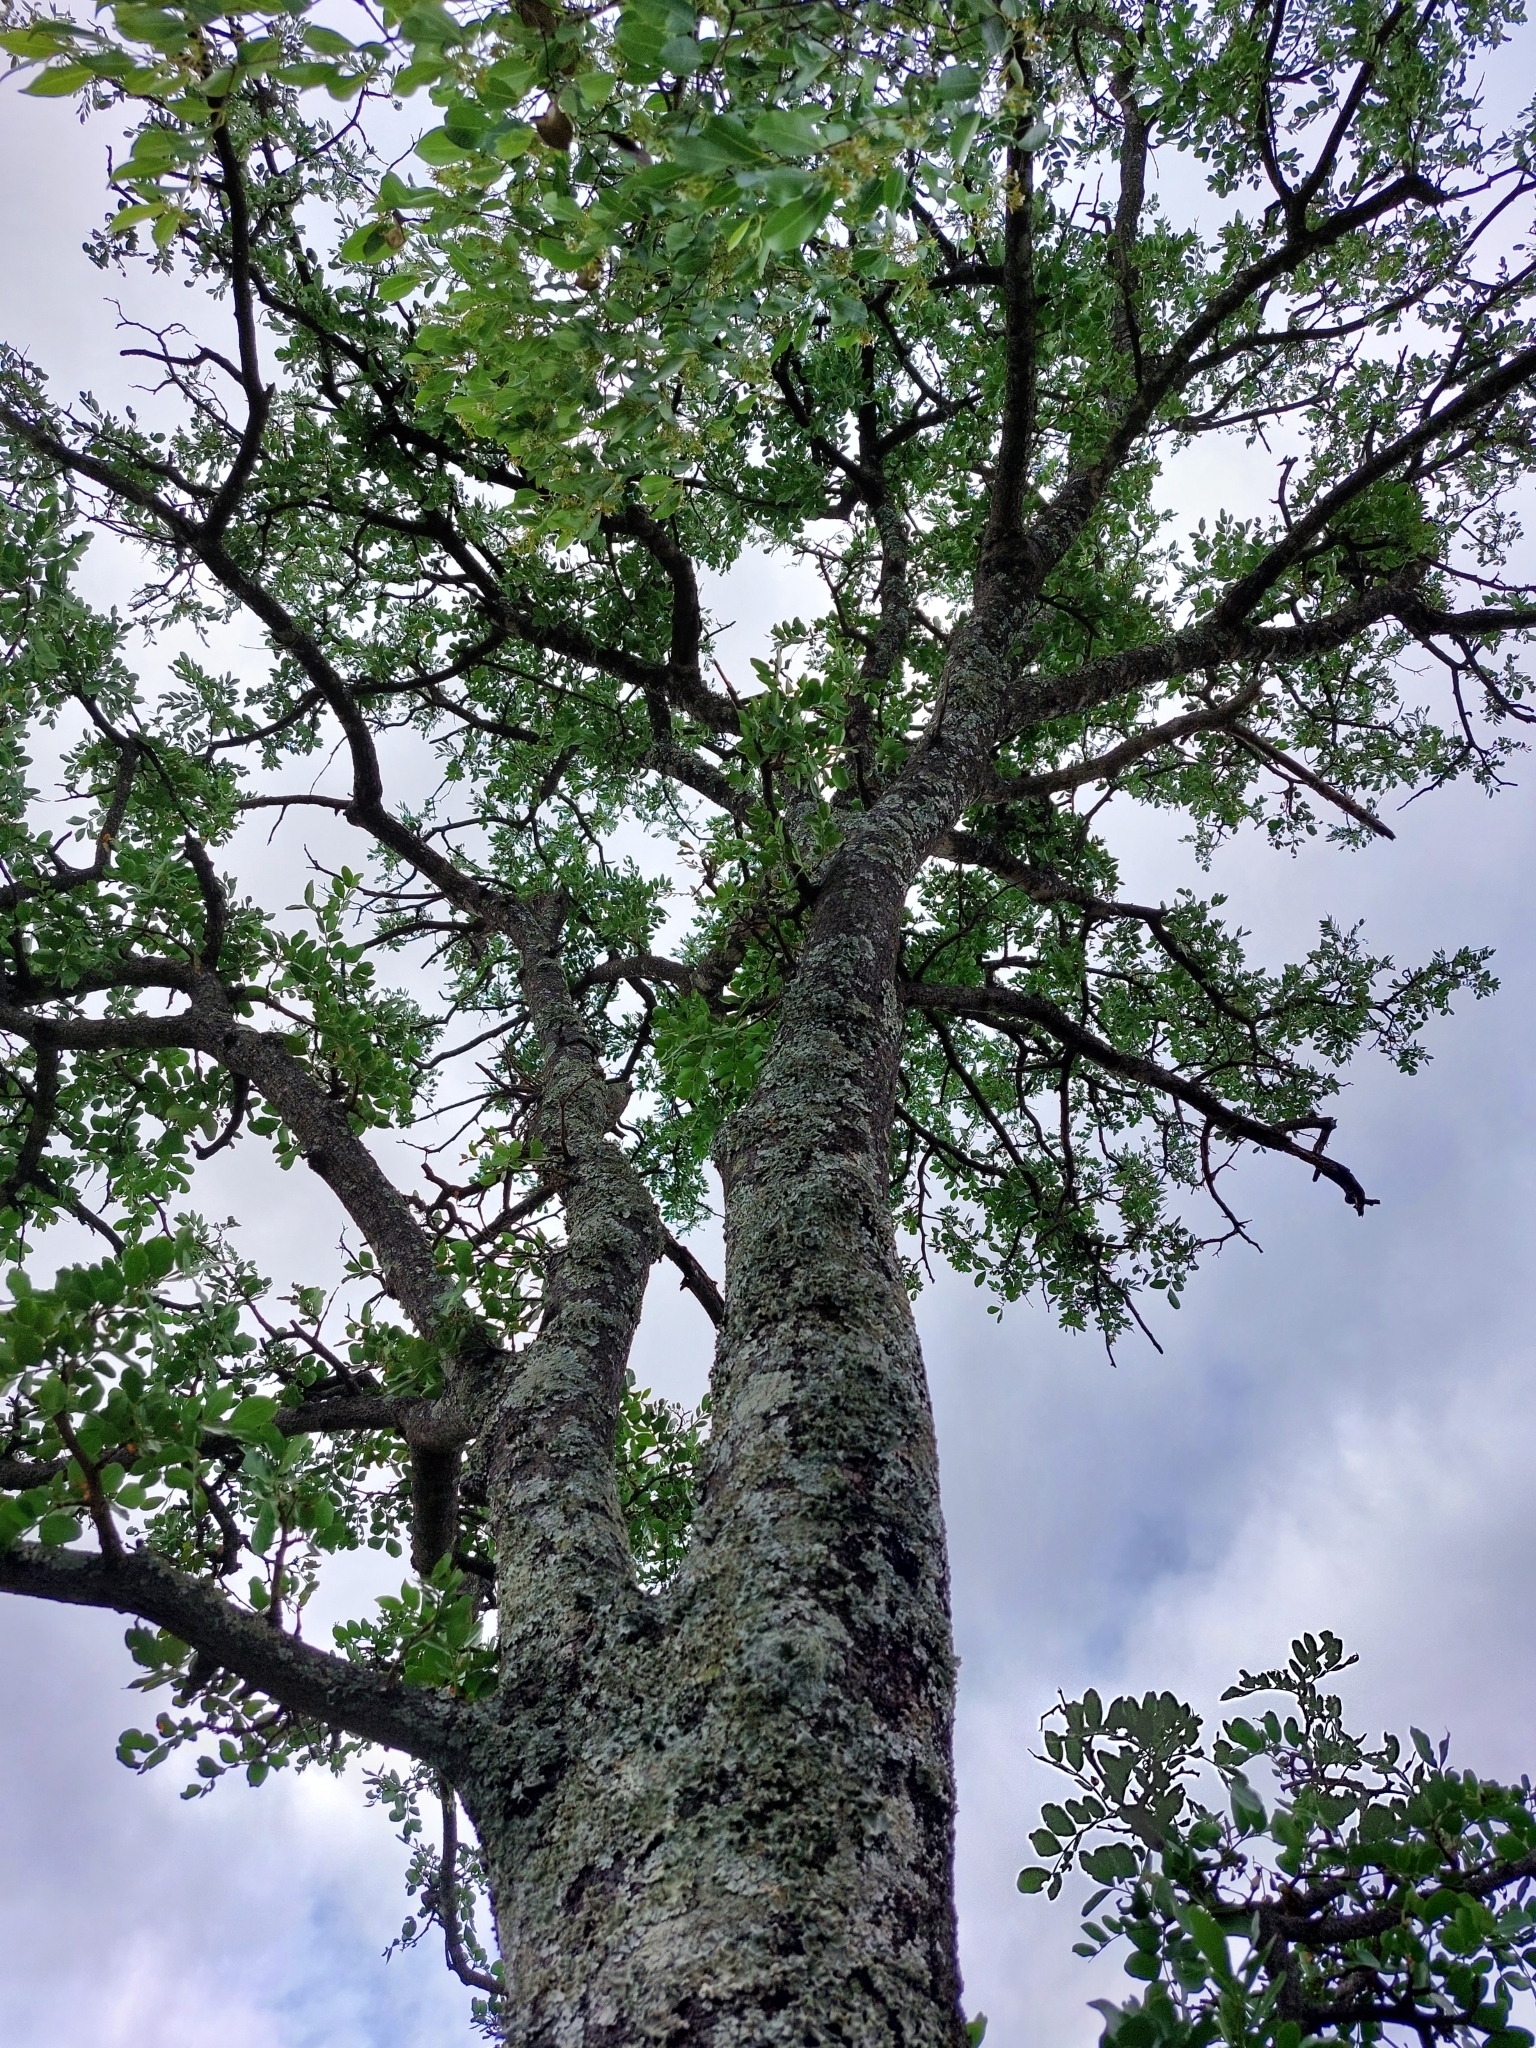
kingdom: Plantae
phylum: Tracheophyta
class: Magnoliopsida
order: Fabales
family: Fabaceae
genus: Schotia
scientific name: Schotia brachypetala
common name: Weeping boer-bean
